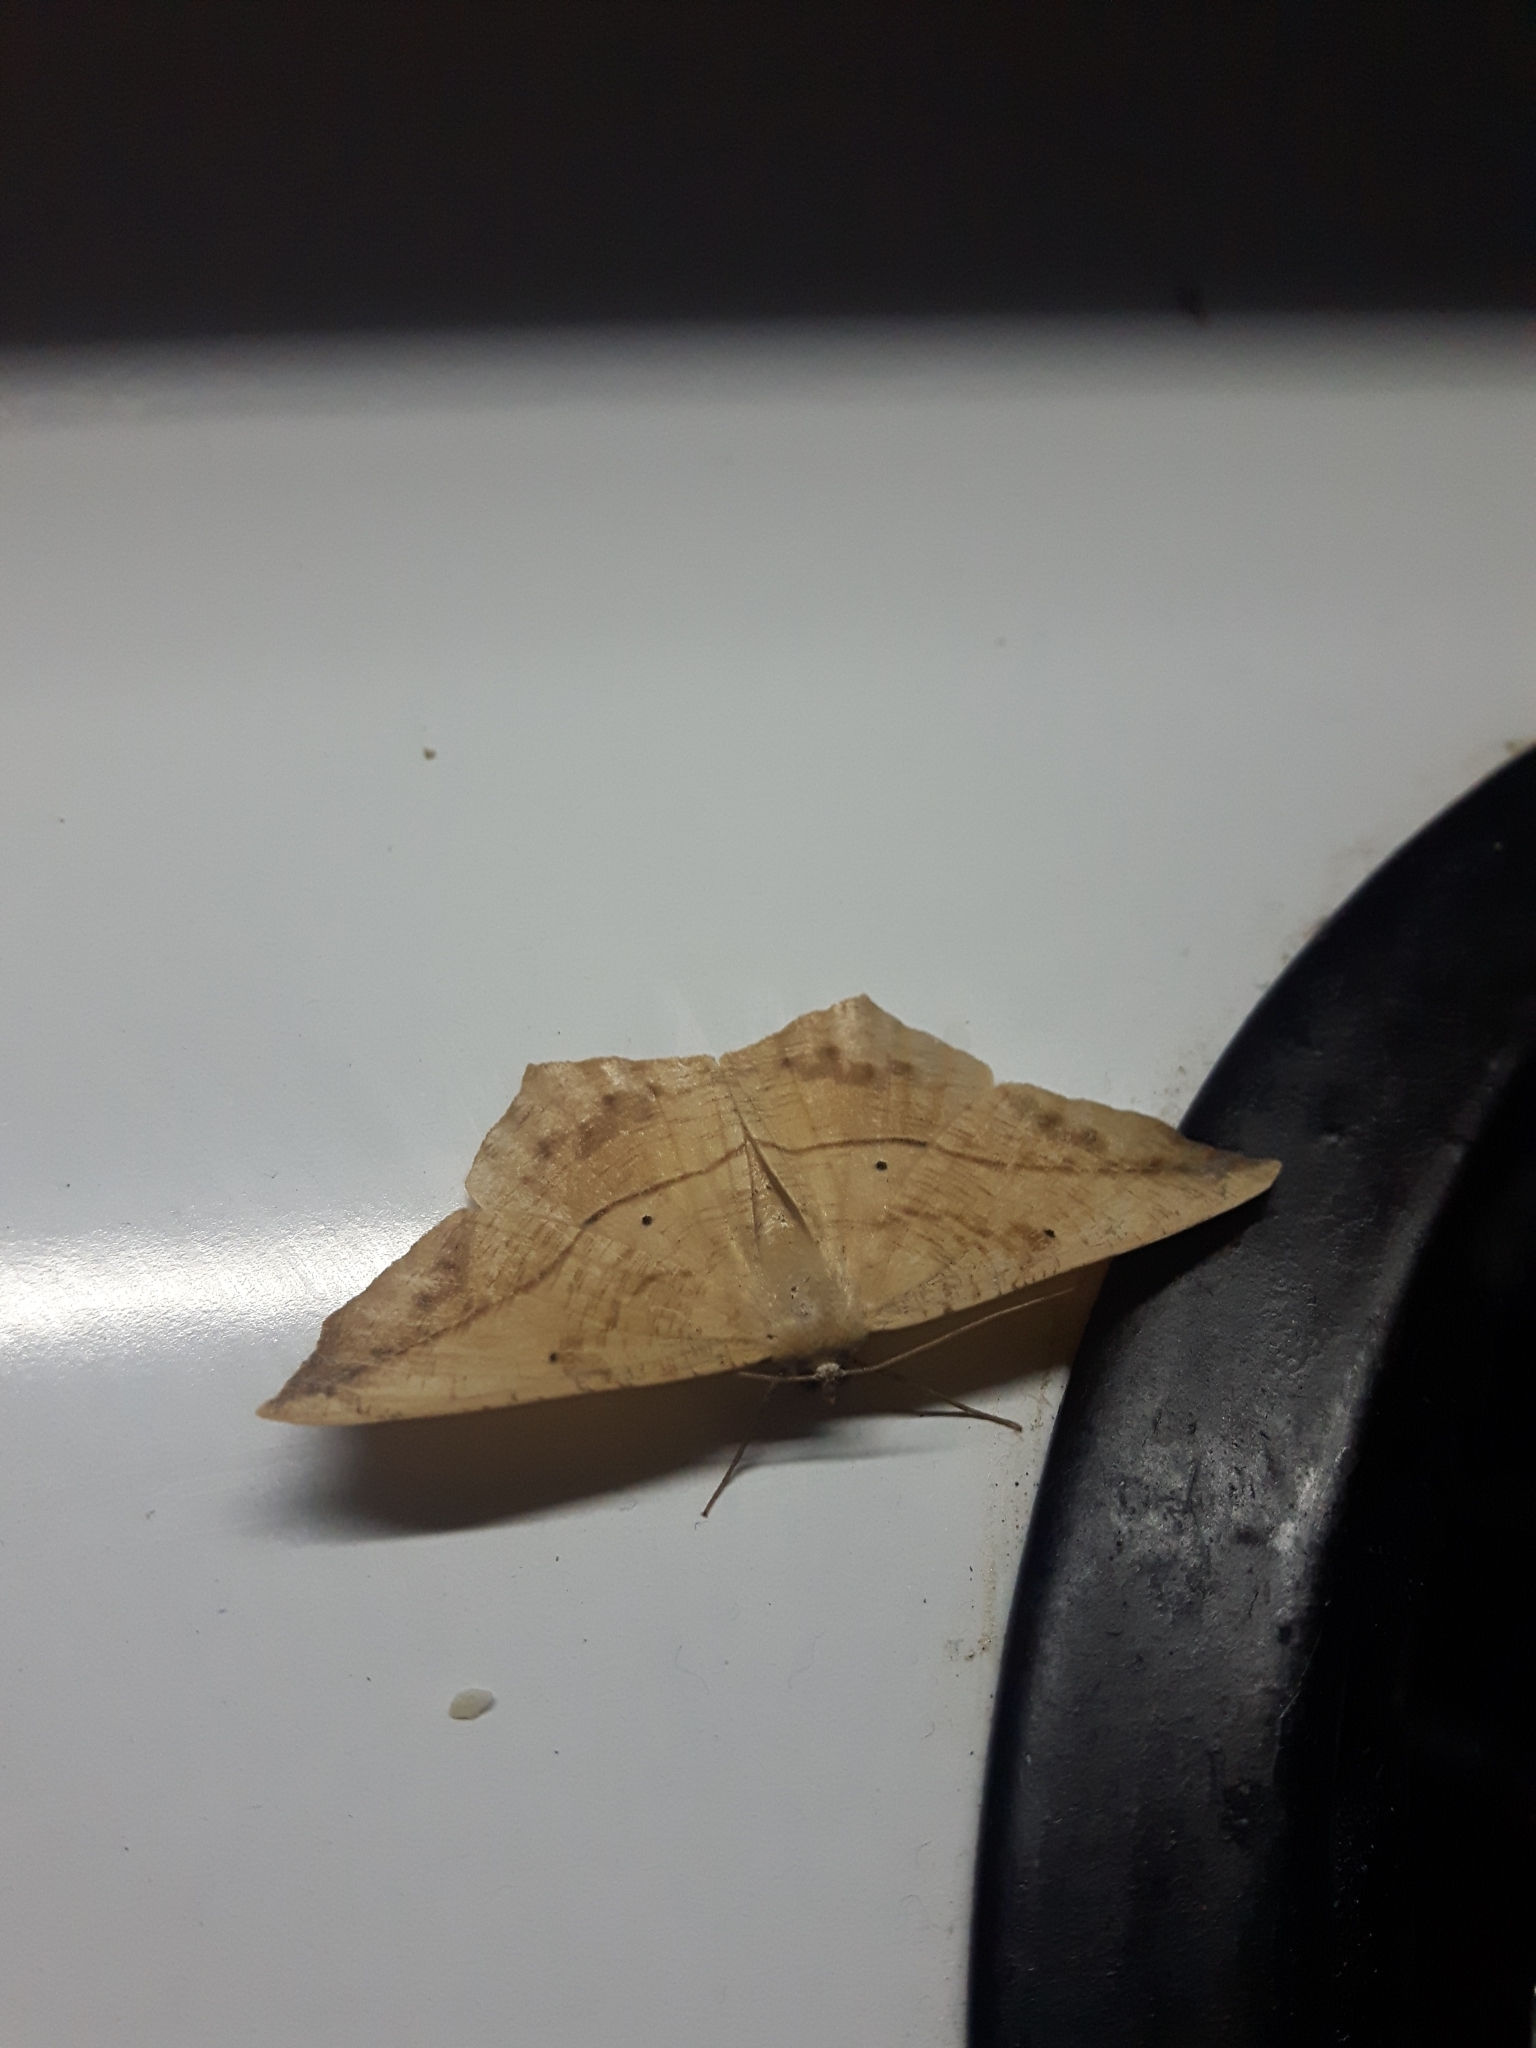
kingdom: Animalia
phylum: Arthropoda
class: Insecta
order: Lepidoptera
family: Geometridae
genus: Prochoerodes
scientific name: Prochoerodes lineola
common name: Large maple spanworm
